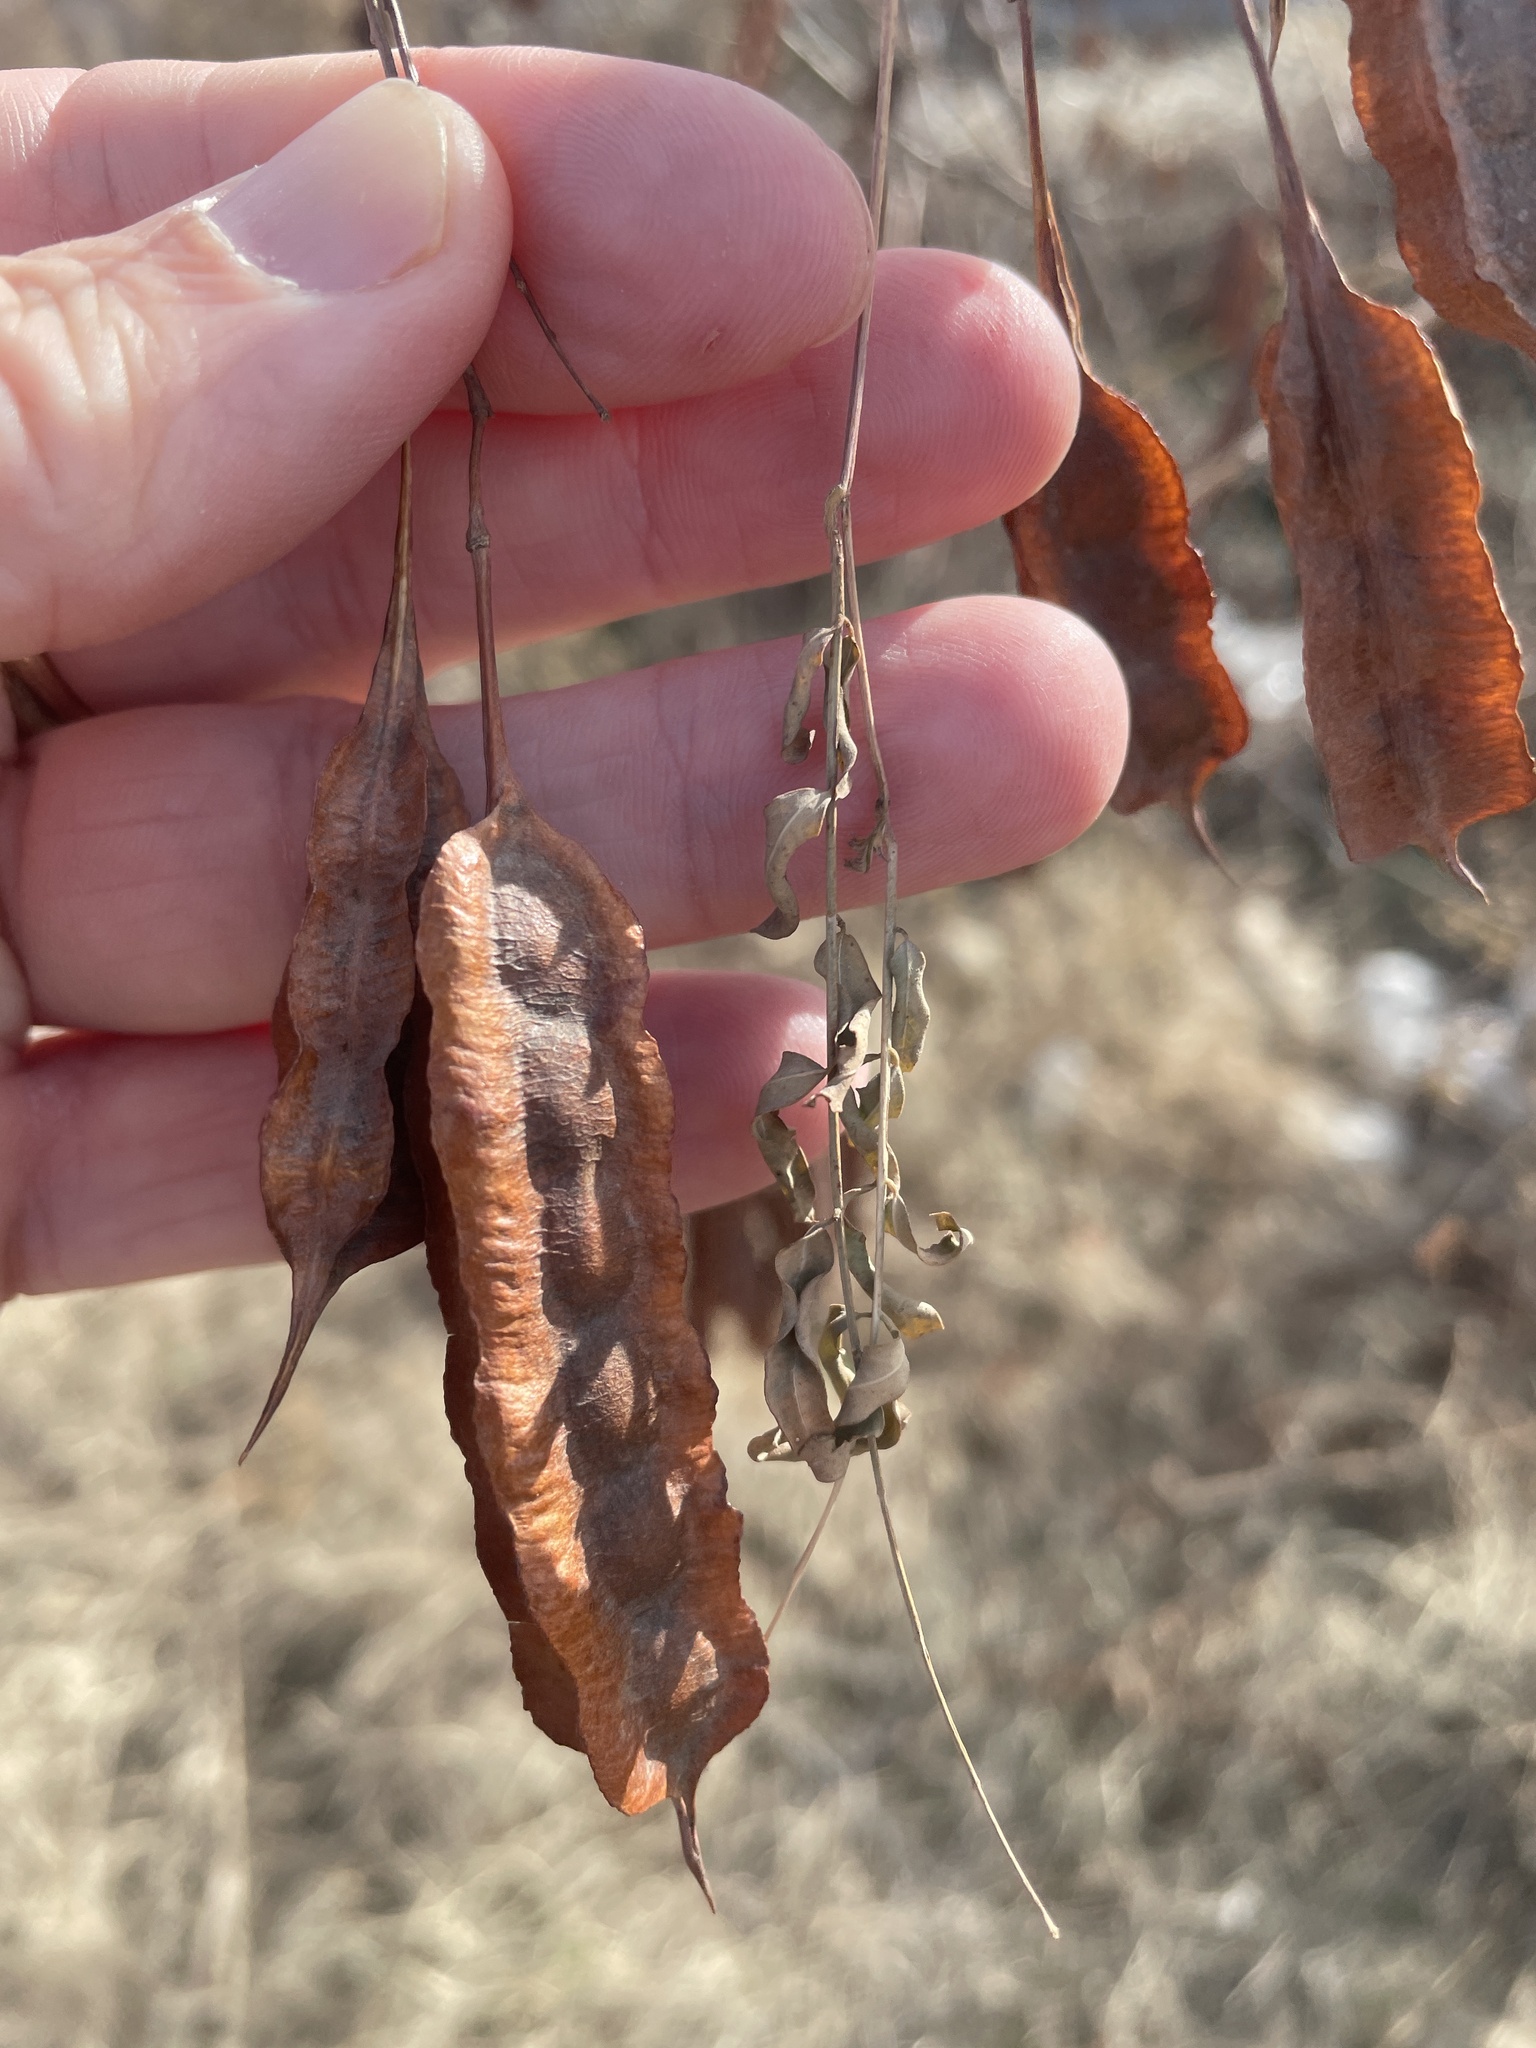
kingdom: Plantae
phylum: Tracheophyta
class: Magnoliopsida
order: Fabales
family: Fabaceae
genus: Sesbania
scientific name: Sesbania drummondii
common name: Poison-bean
